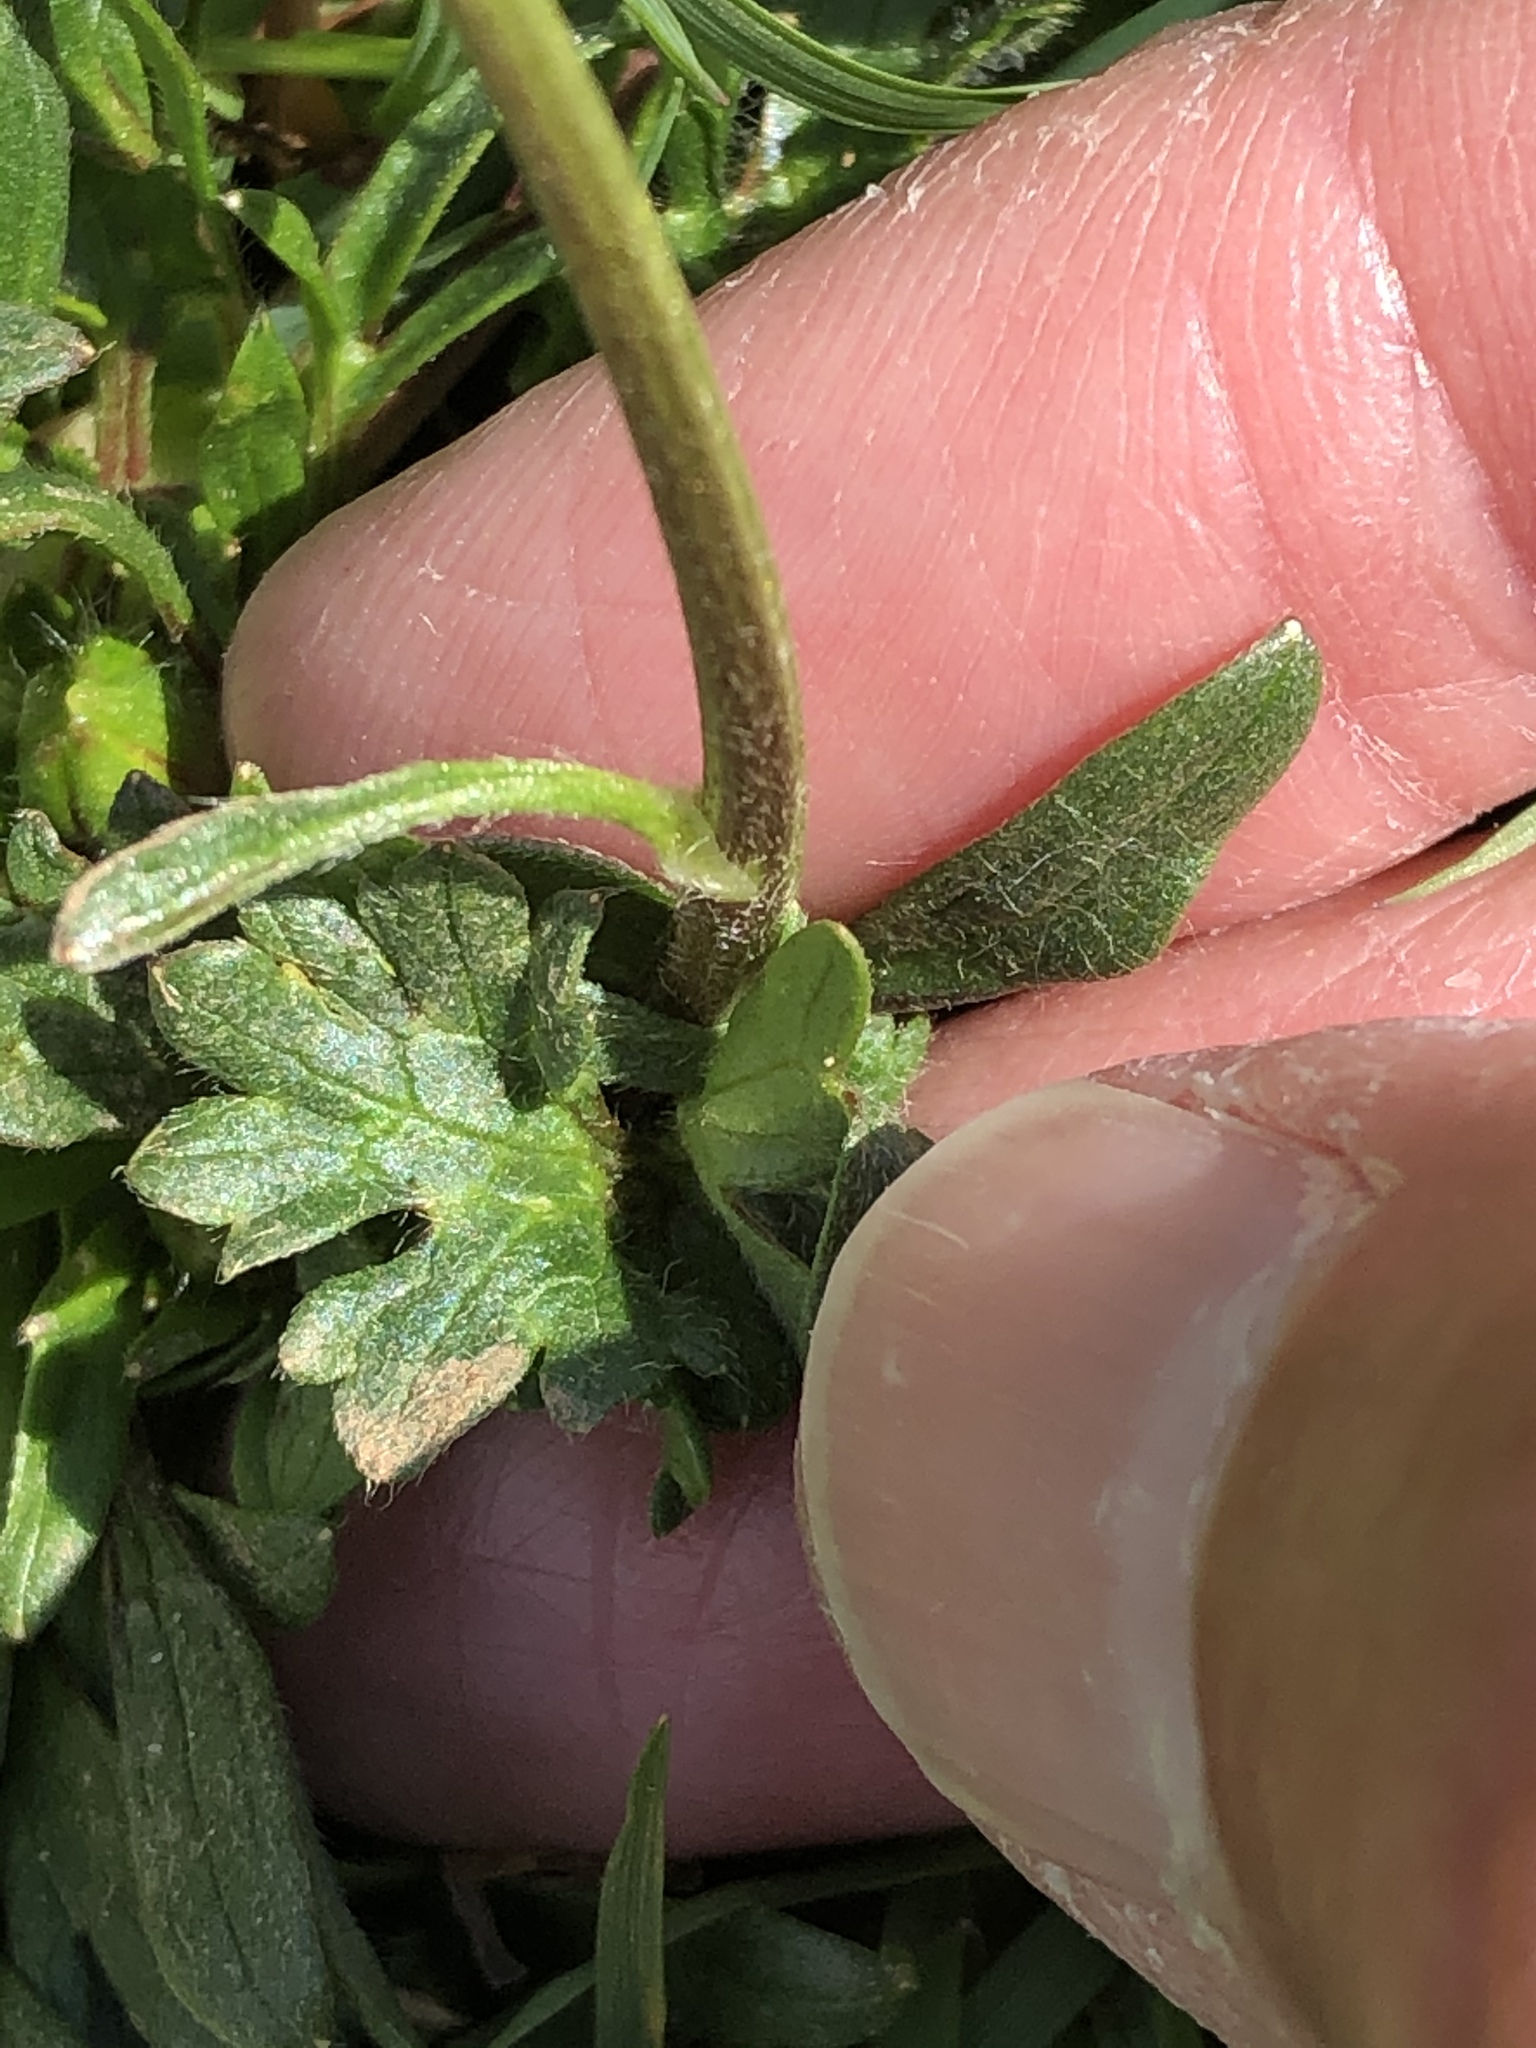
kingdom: Plantae
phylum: Tracheophyta
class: Magnoliopsida
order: Ranunculales
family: Ranunculaceae
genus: Ranunculus
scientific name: Ranunculus bulbosus
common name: Bulbous buttercup
